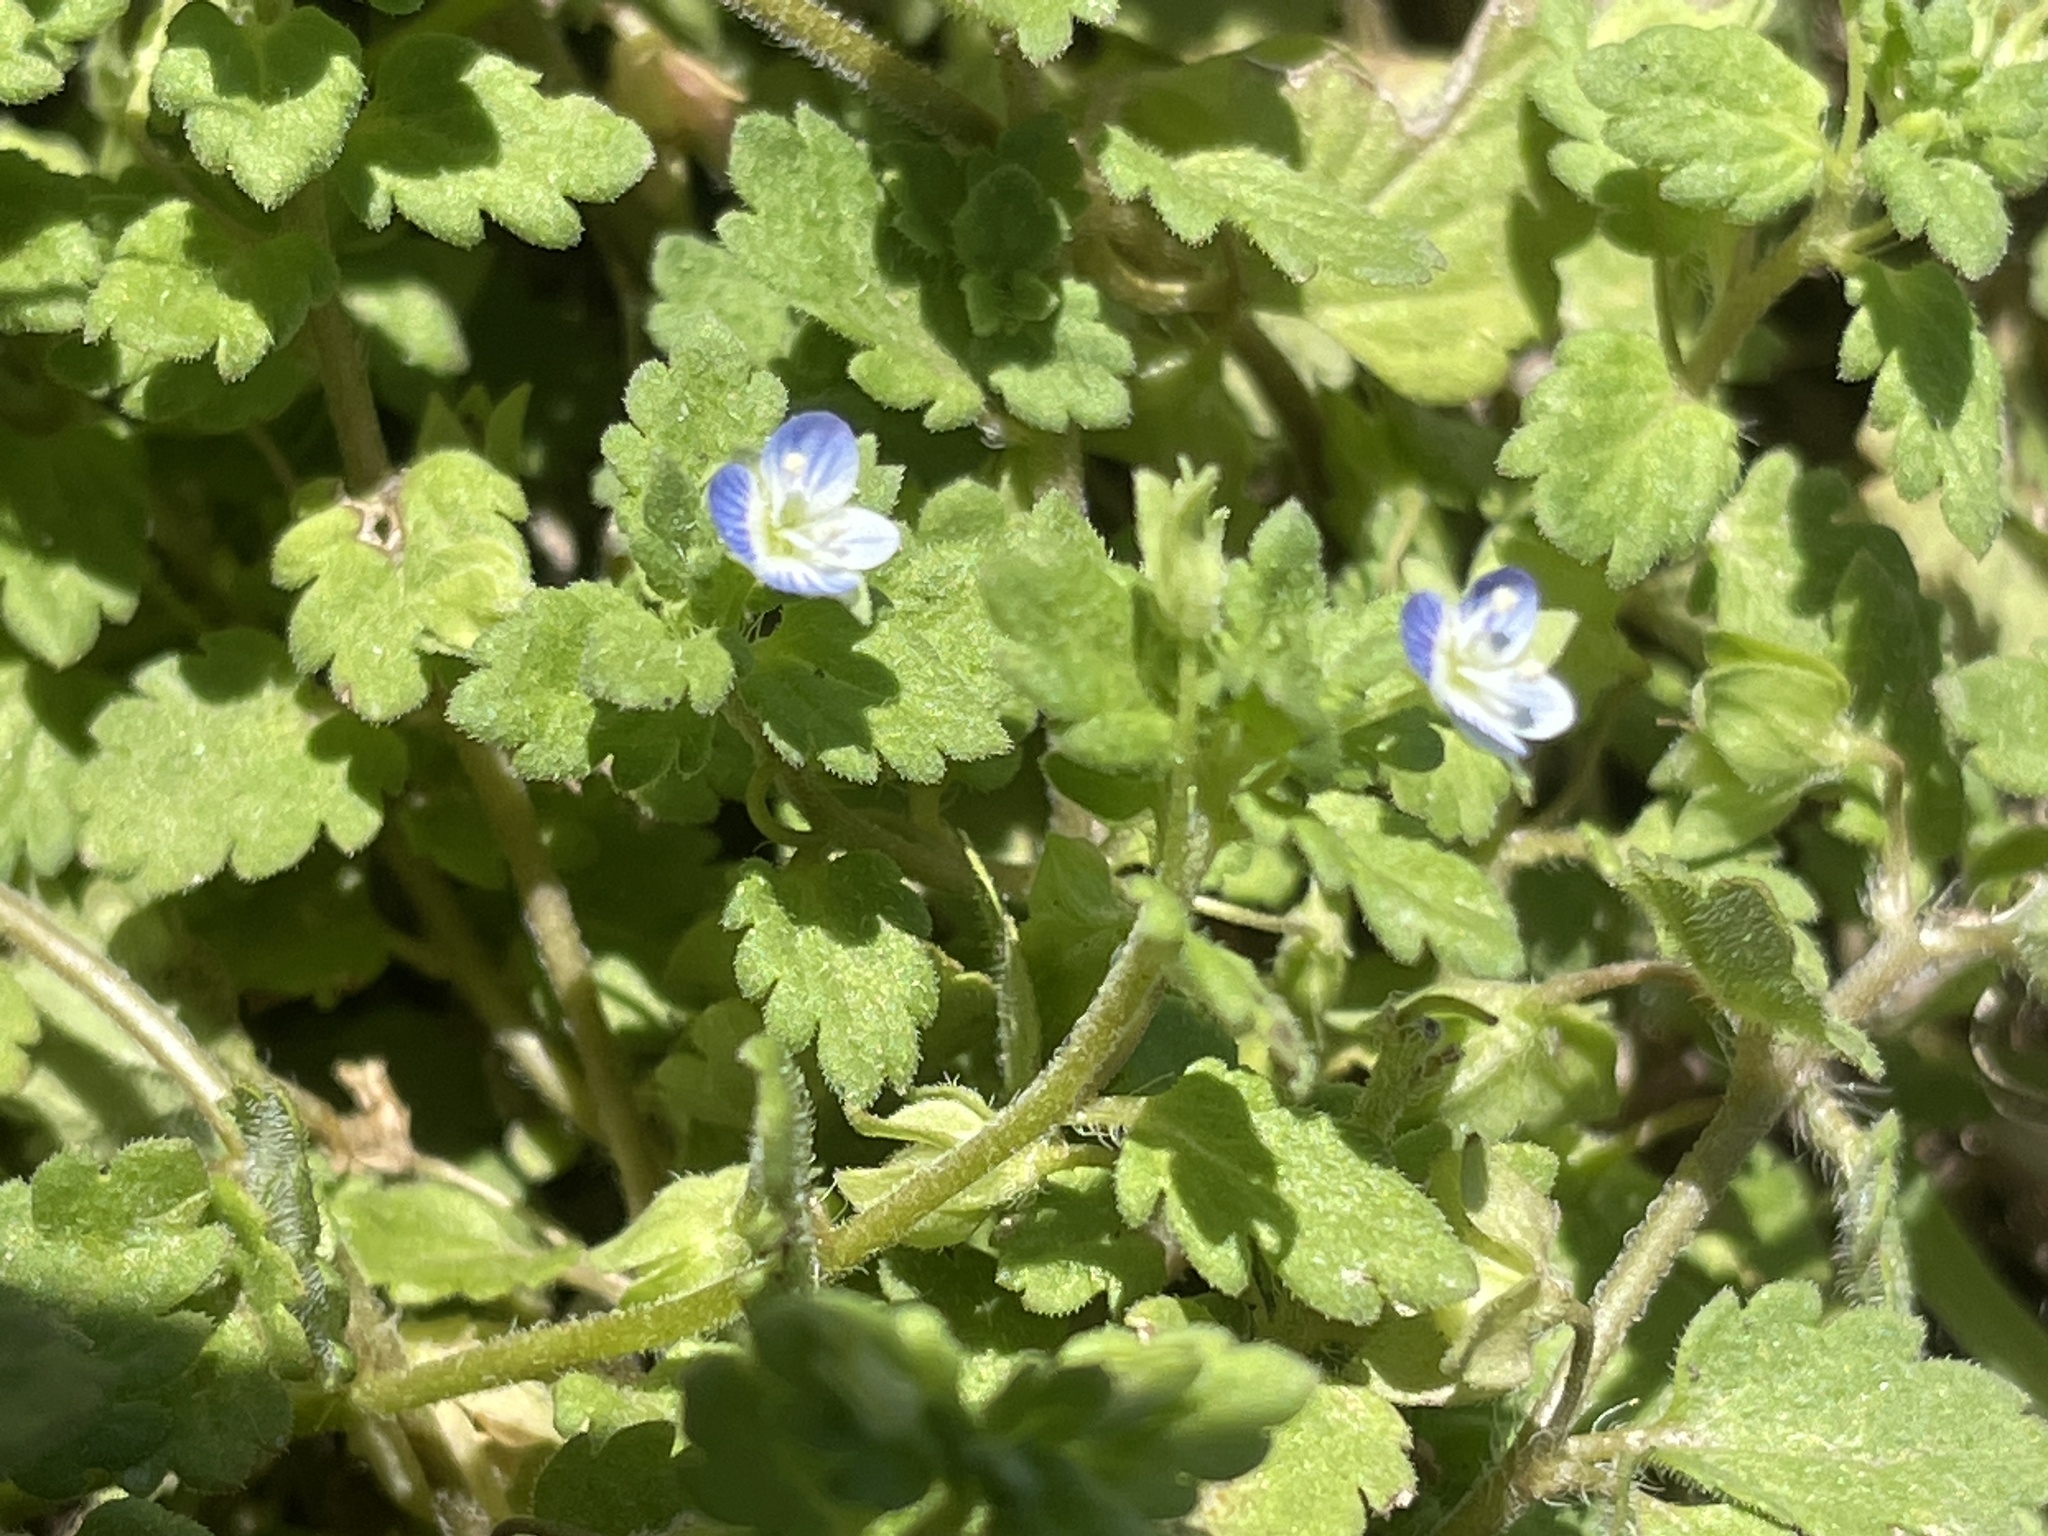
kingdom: Plantae
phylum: Tracheophyta
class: Magnoliopsida
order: Lamiales
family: Plantaginaceae
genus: Veronica
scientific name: Veronica persica
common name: Common field-speedwell
